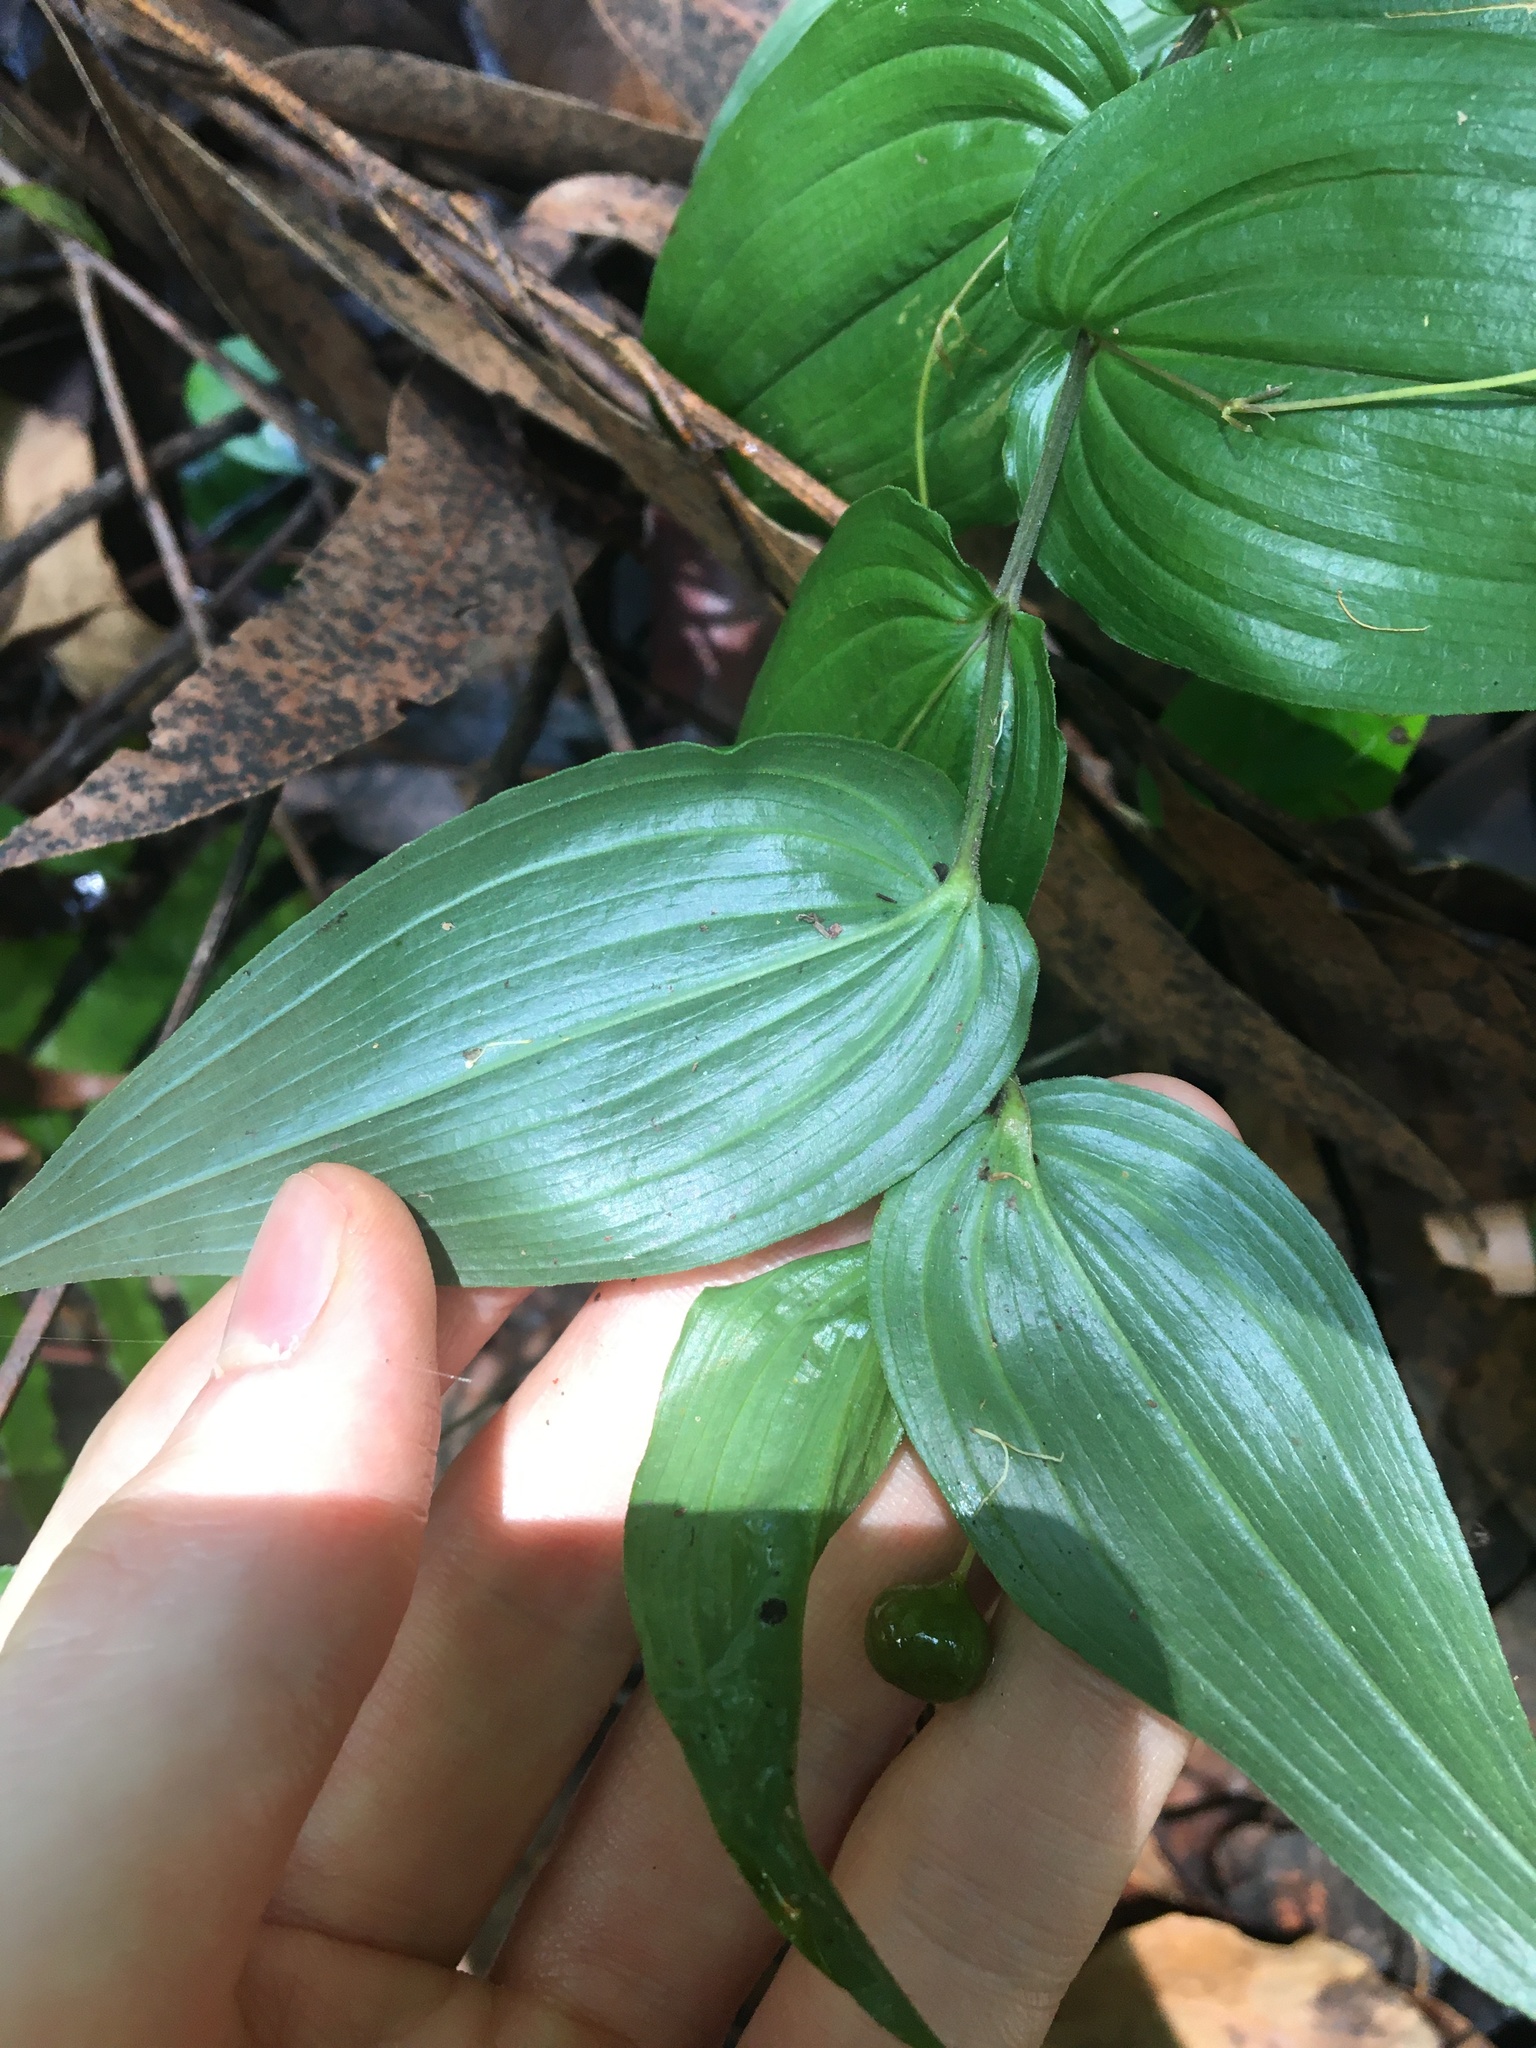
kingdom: Plantae
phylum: Tracheophyta
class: Liliopsida
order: Liliales
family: Colchicaceae
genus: Tripladenia
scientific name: Tripladenia cunninghamii
